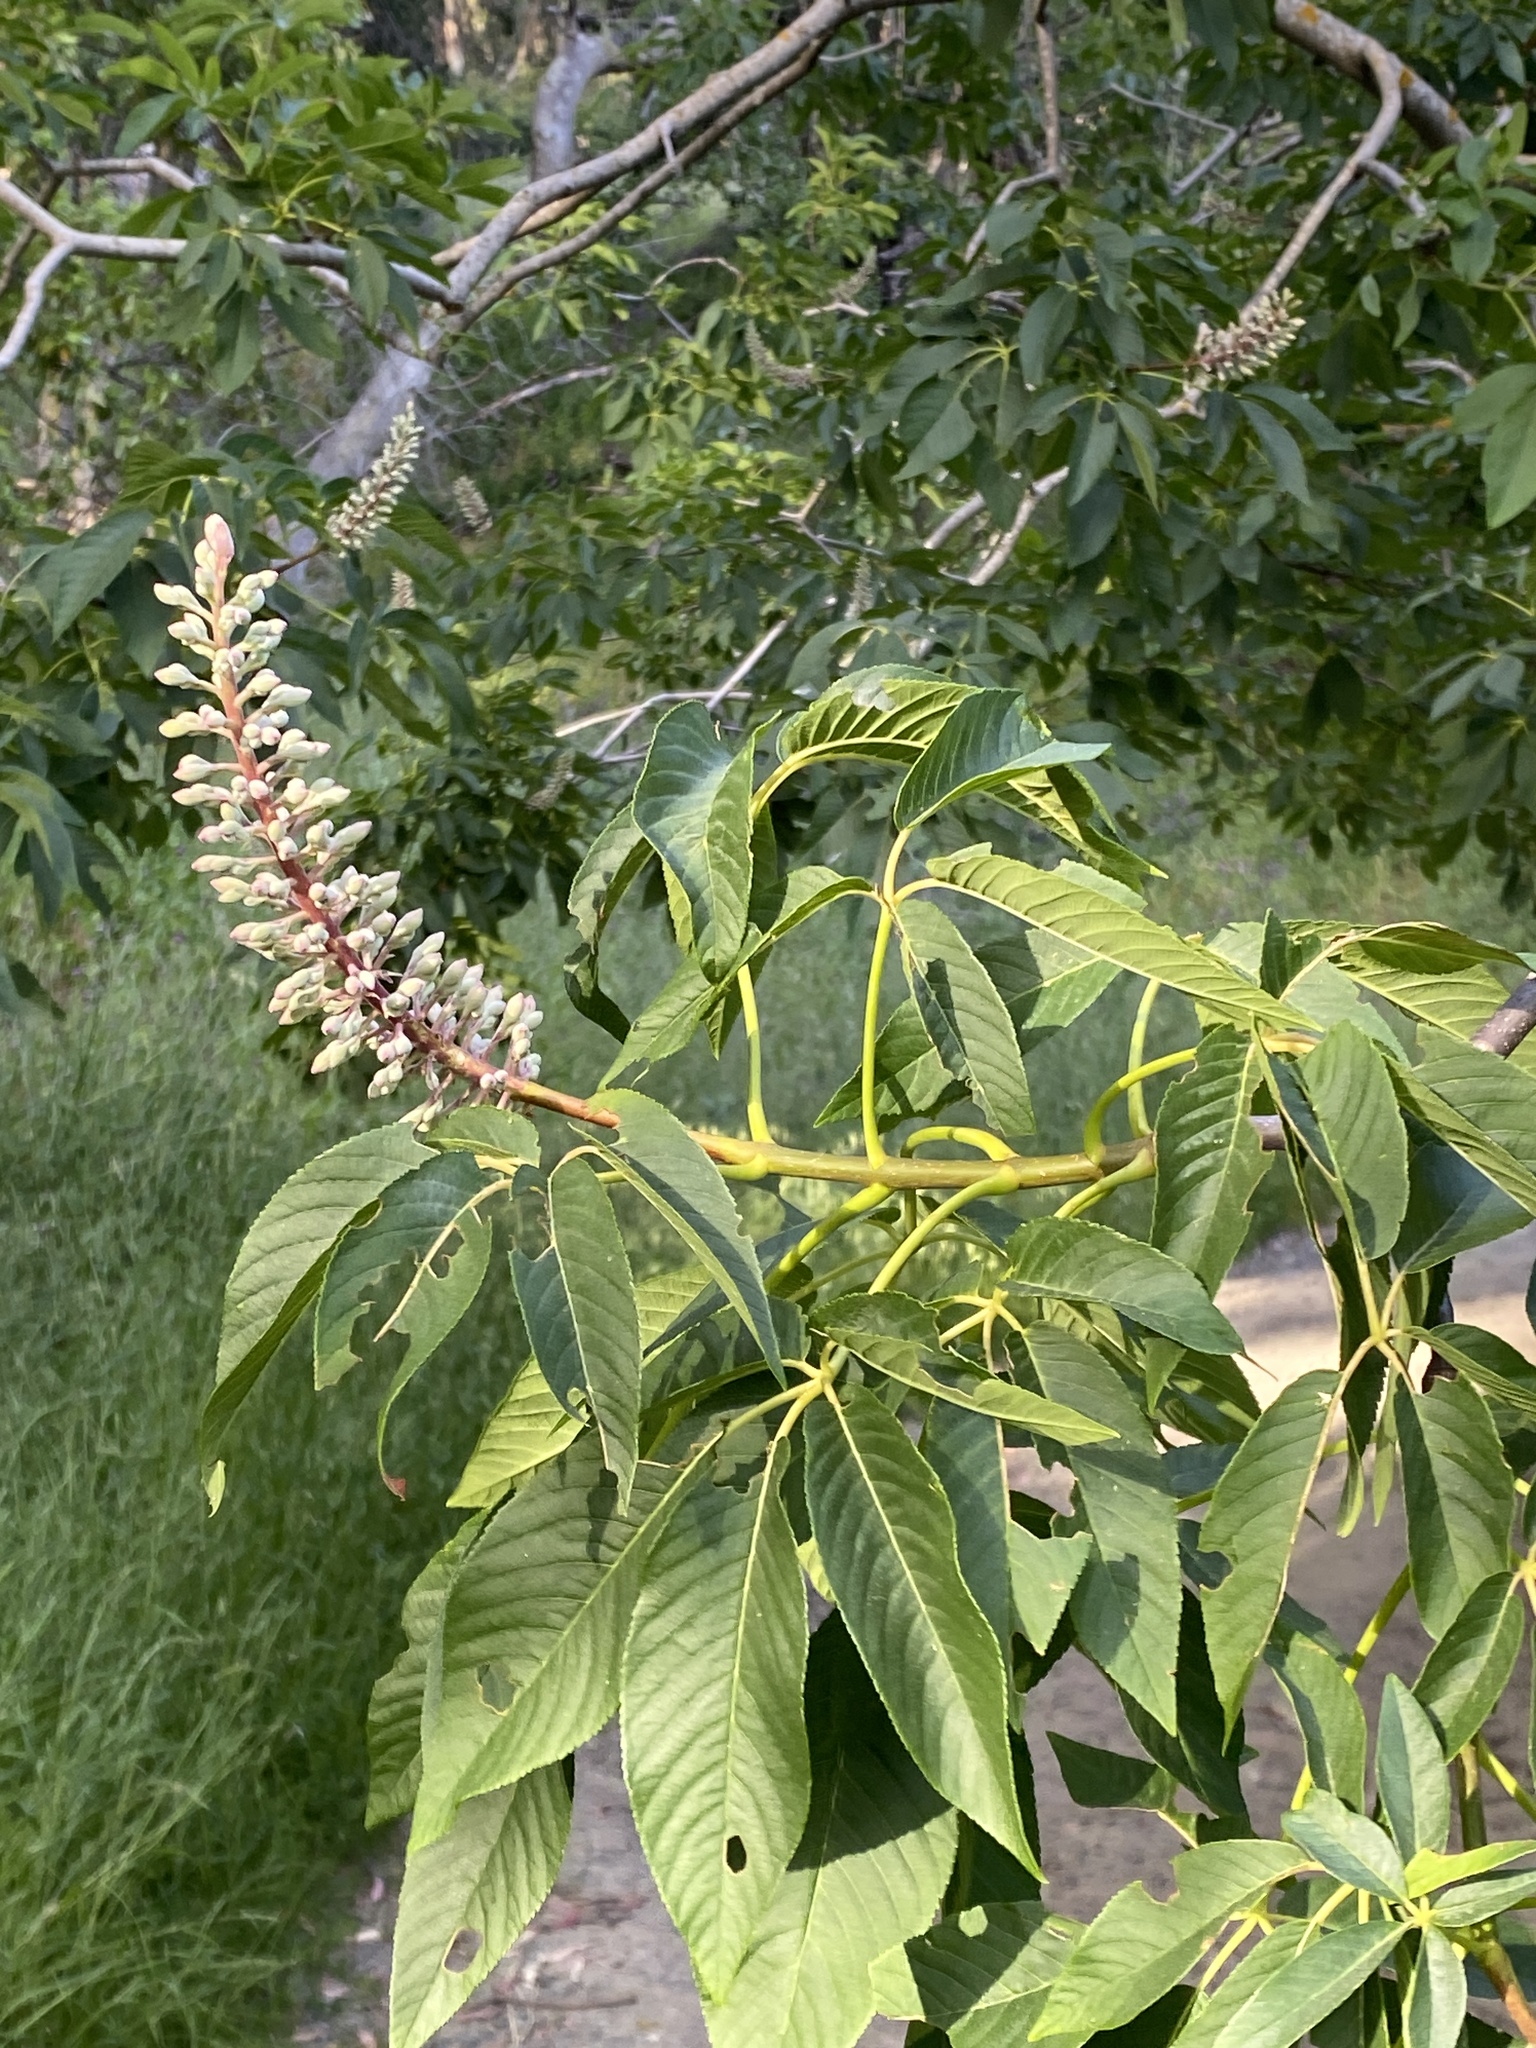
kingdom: Plantae
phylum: Tracheophyta
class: Magnoliopsida
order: Sapindales
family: Sapindaceae
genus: Aesculus
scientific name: Aesculus californica
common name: California buckeye
